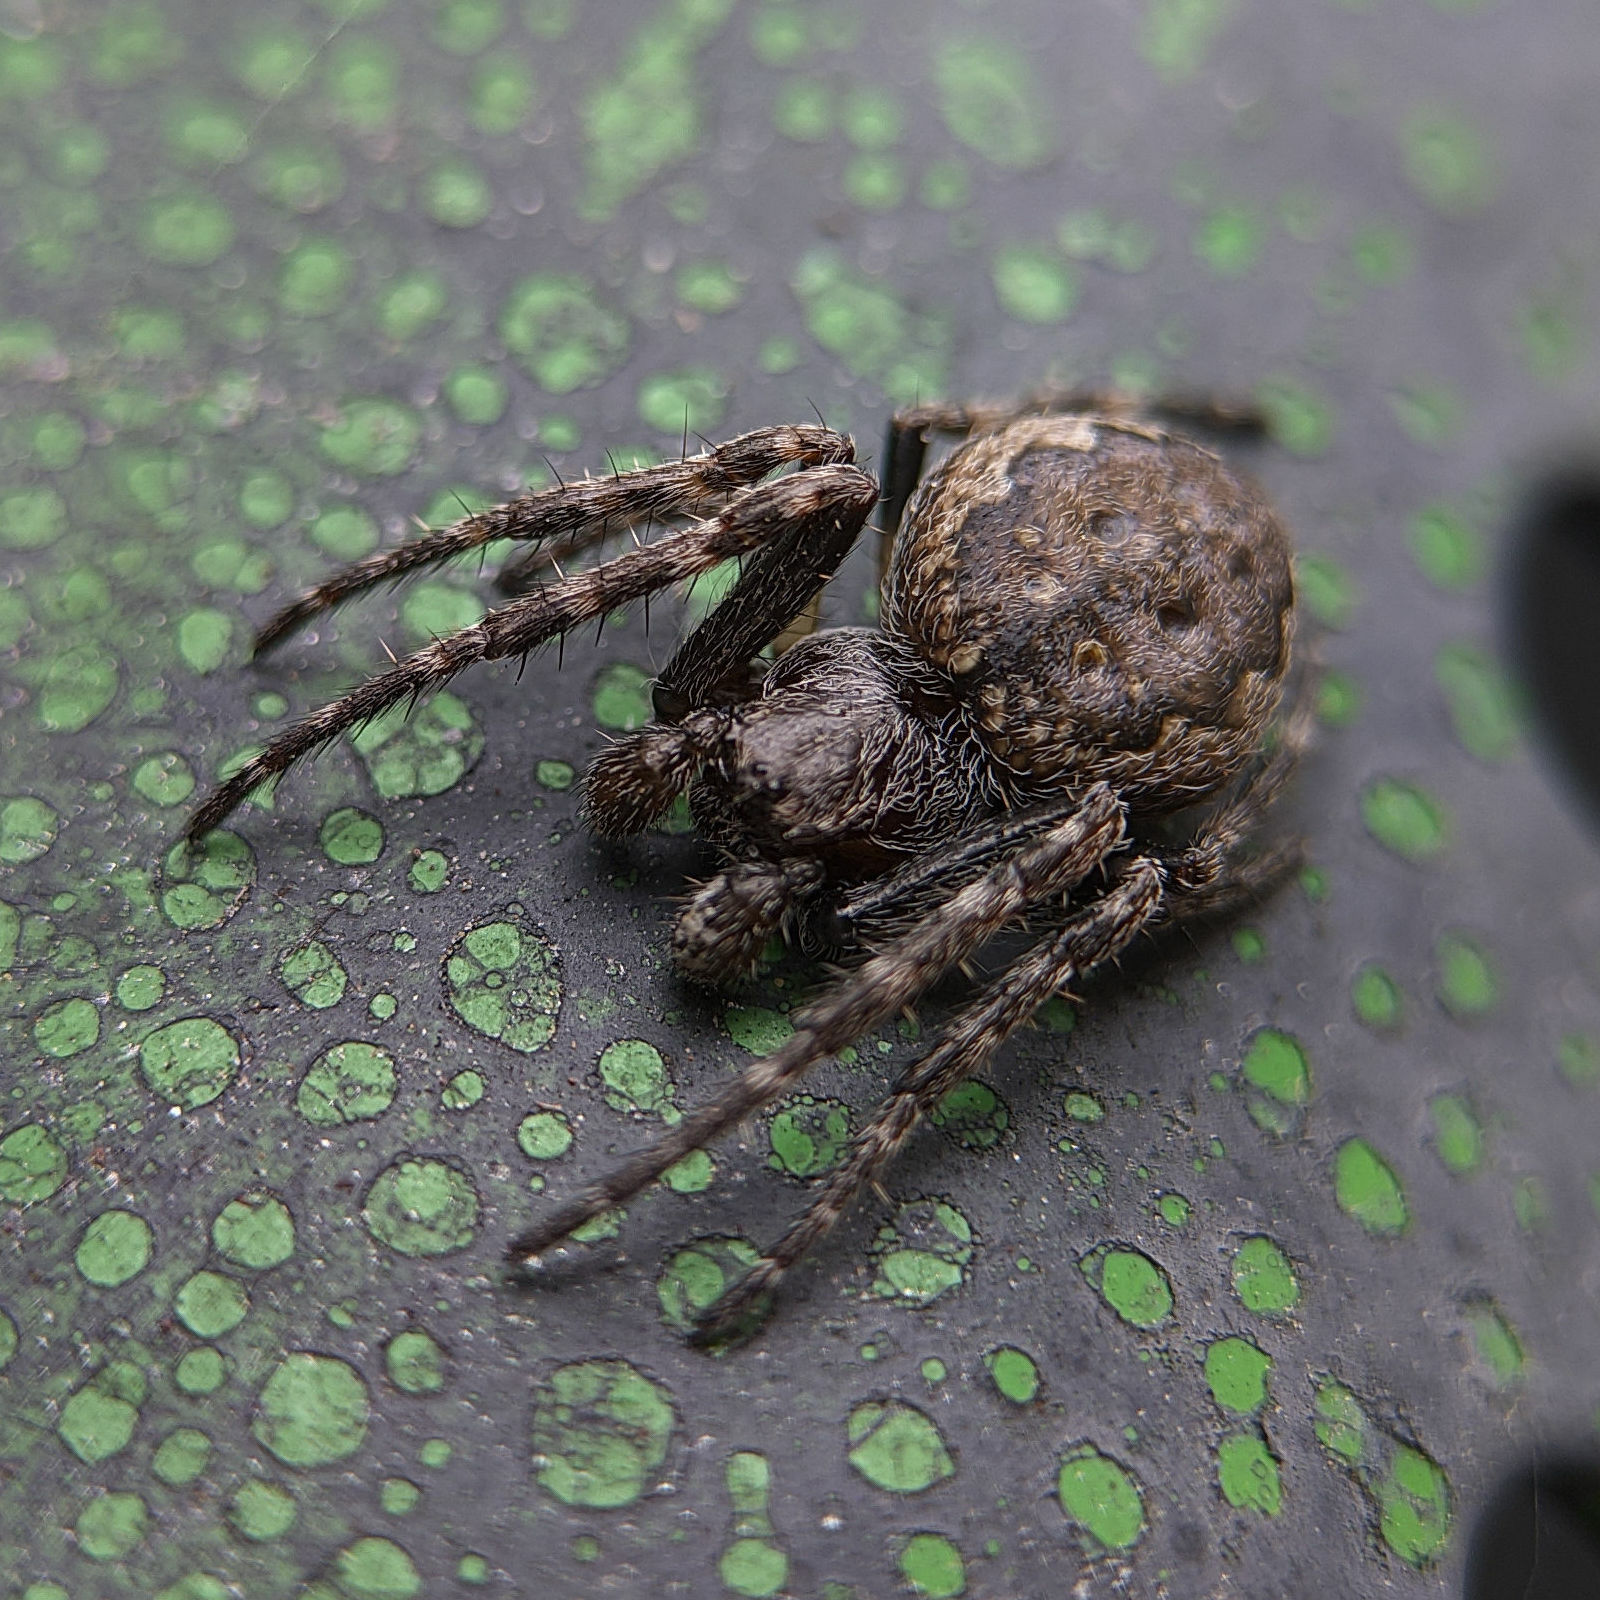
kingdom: Animalia
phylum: Arthropoda
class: Arachnida
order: Araneae
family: Araneidae
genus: Nuctenea
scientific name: Nuctenea umbratica
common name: Toad spider
